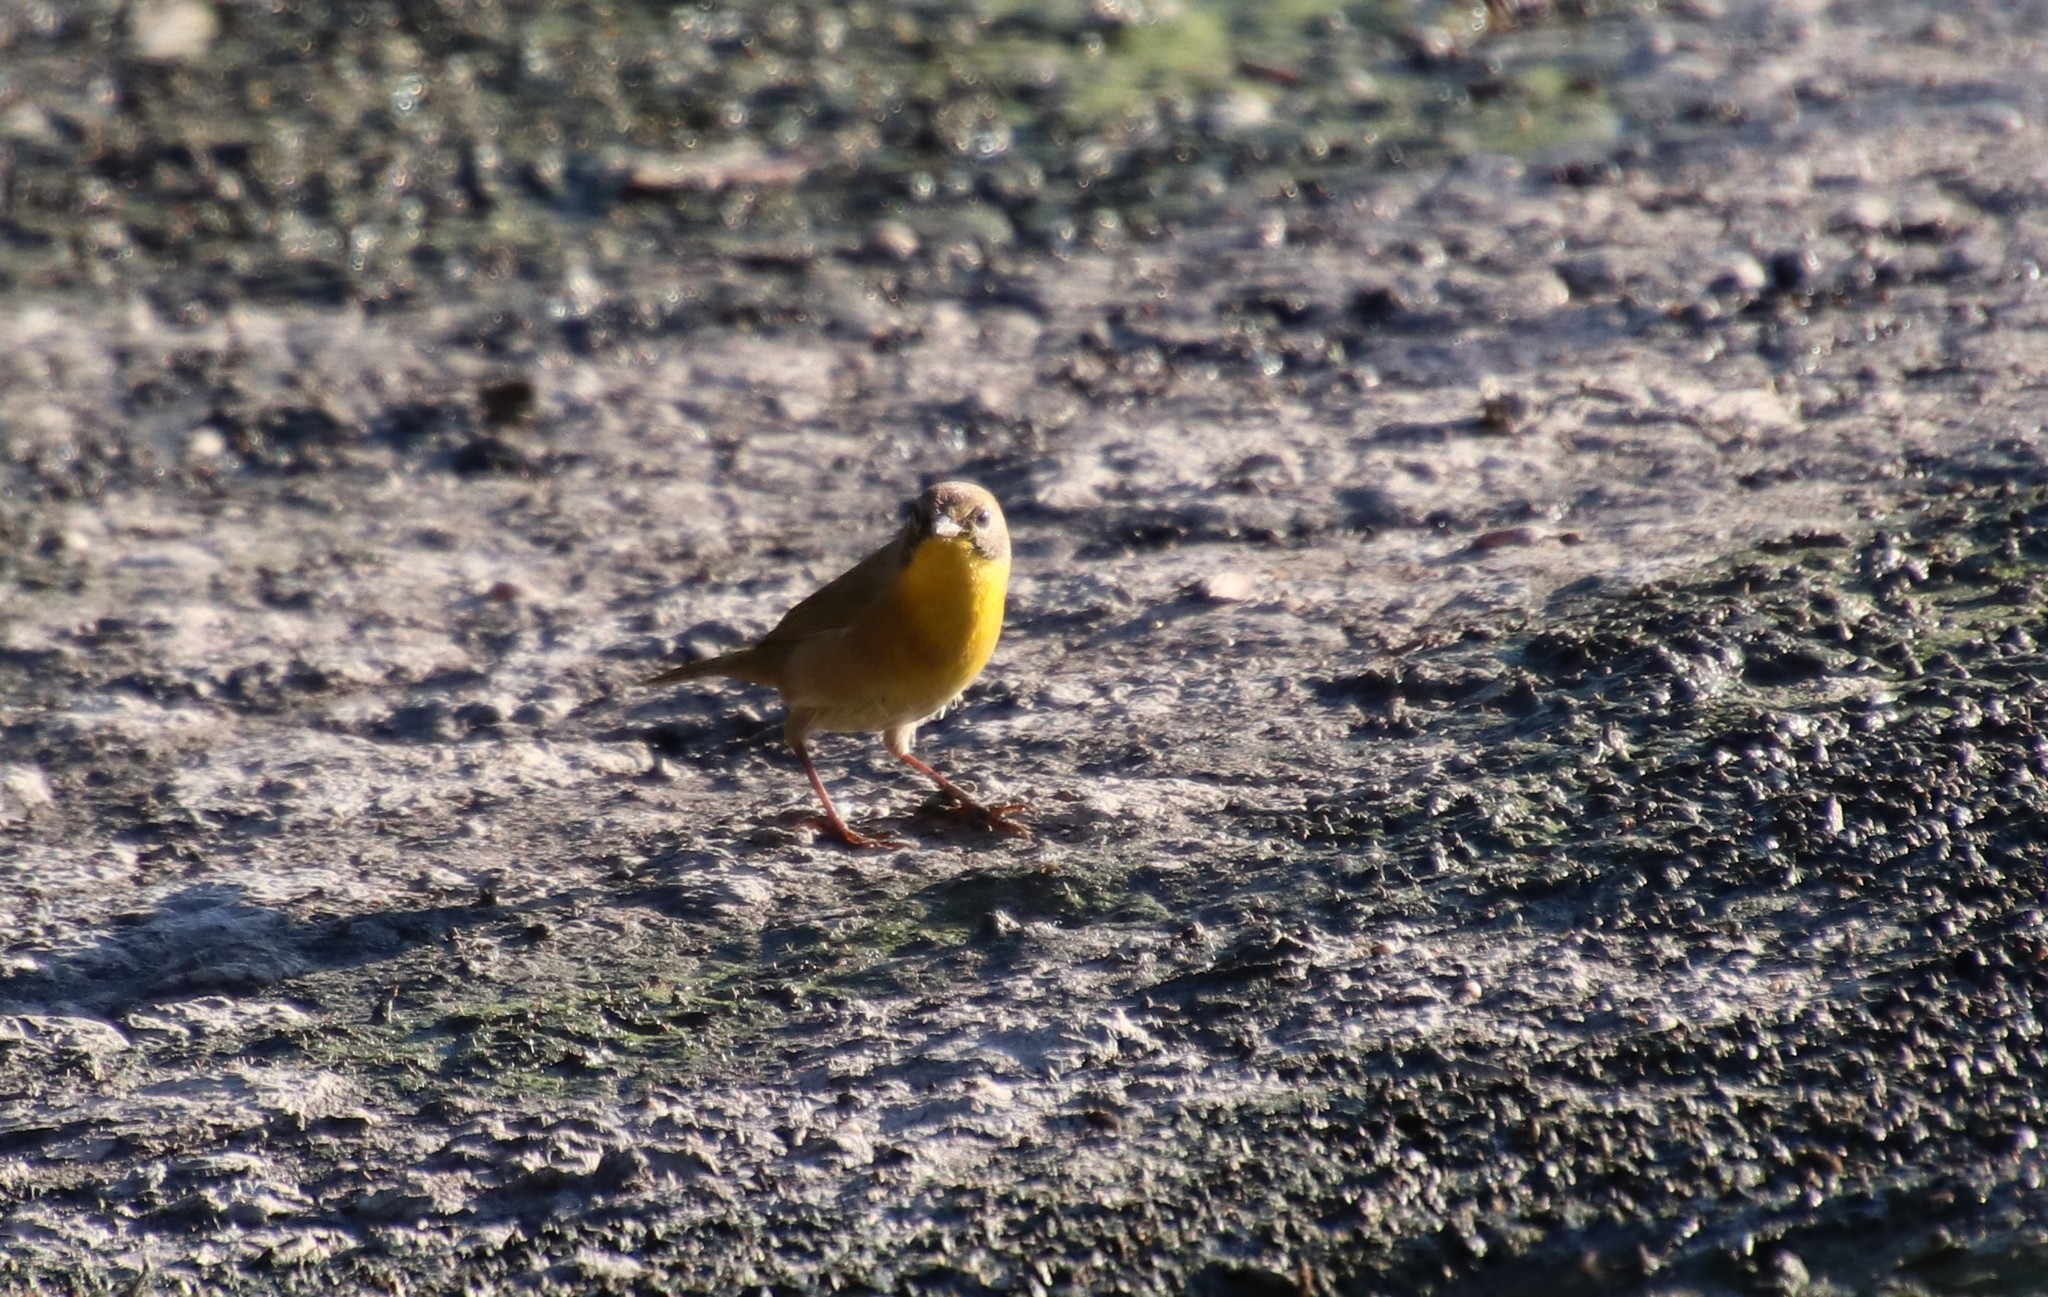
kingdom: Animalia
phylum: Chordata
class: Aves
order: Passeriformes
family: Parulidae
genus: Geothlypis
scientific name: Geothlypis trichas
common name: Common yellowthroat
